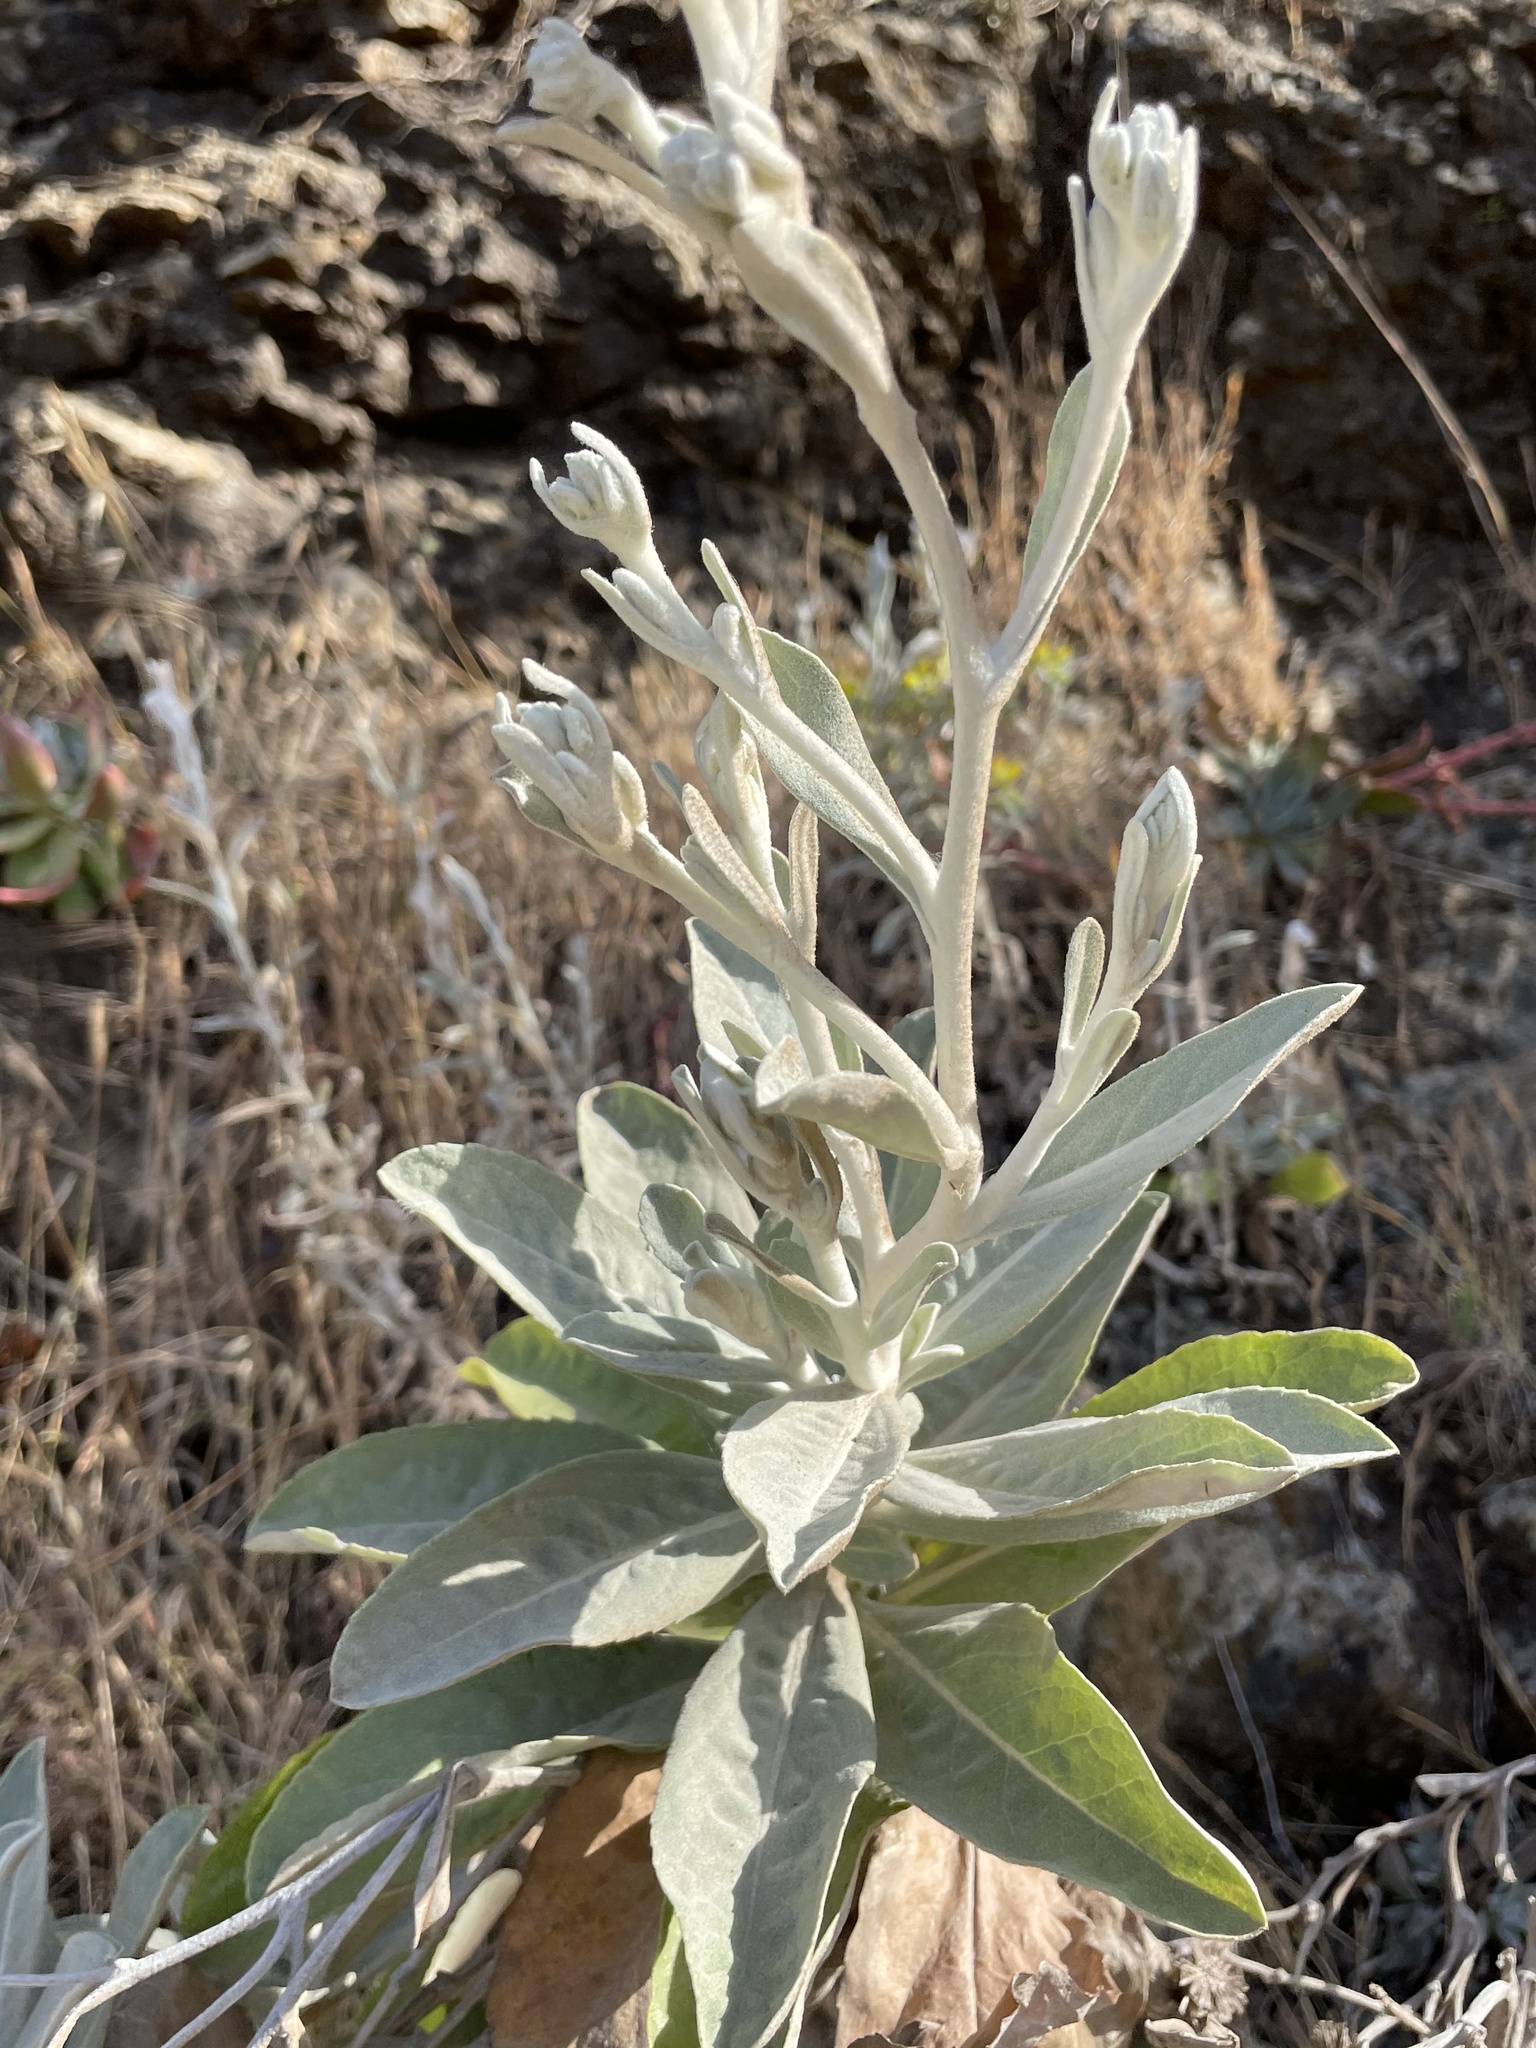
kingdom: Plantae
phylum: Tracheophyta
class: Magnoliopsida
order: Asterales
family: Asteraceae
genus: Hazardia
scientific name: Hazardia detonsa
